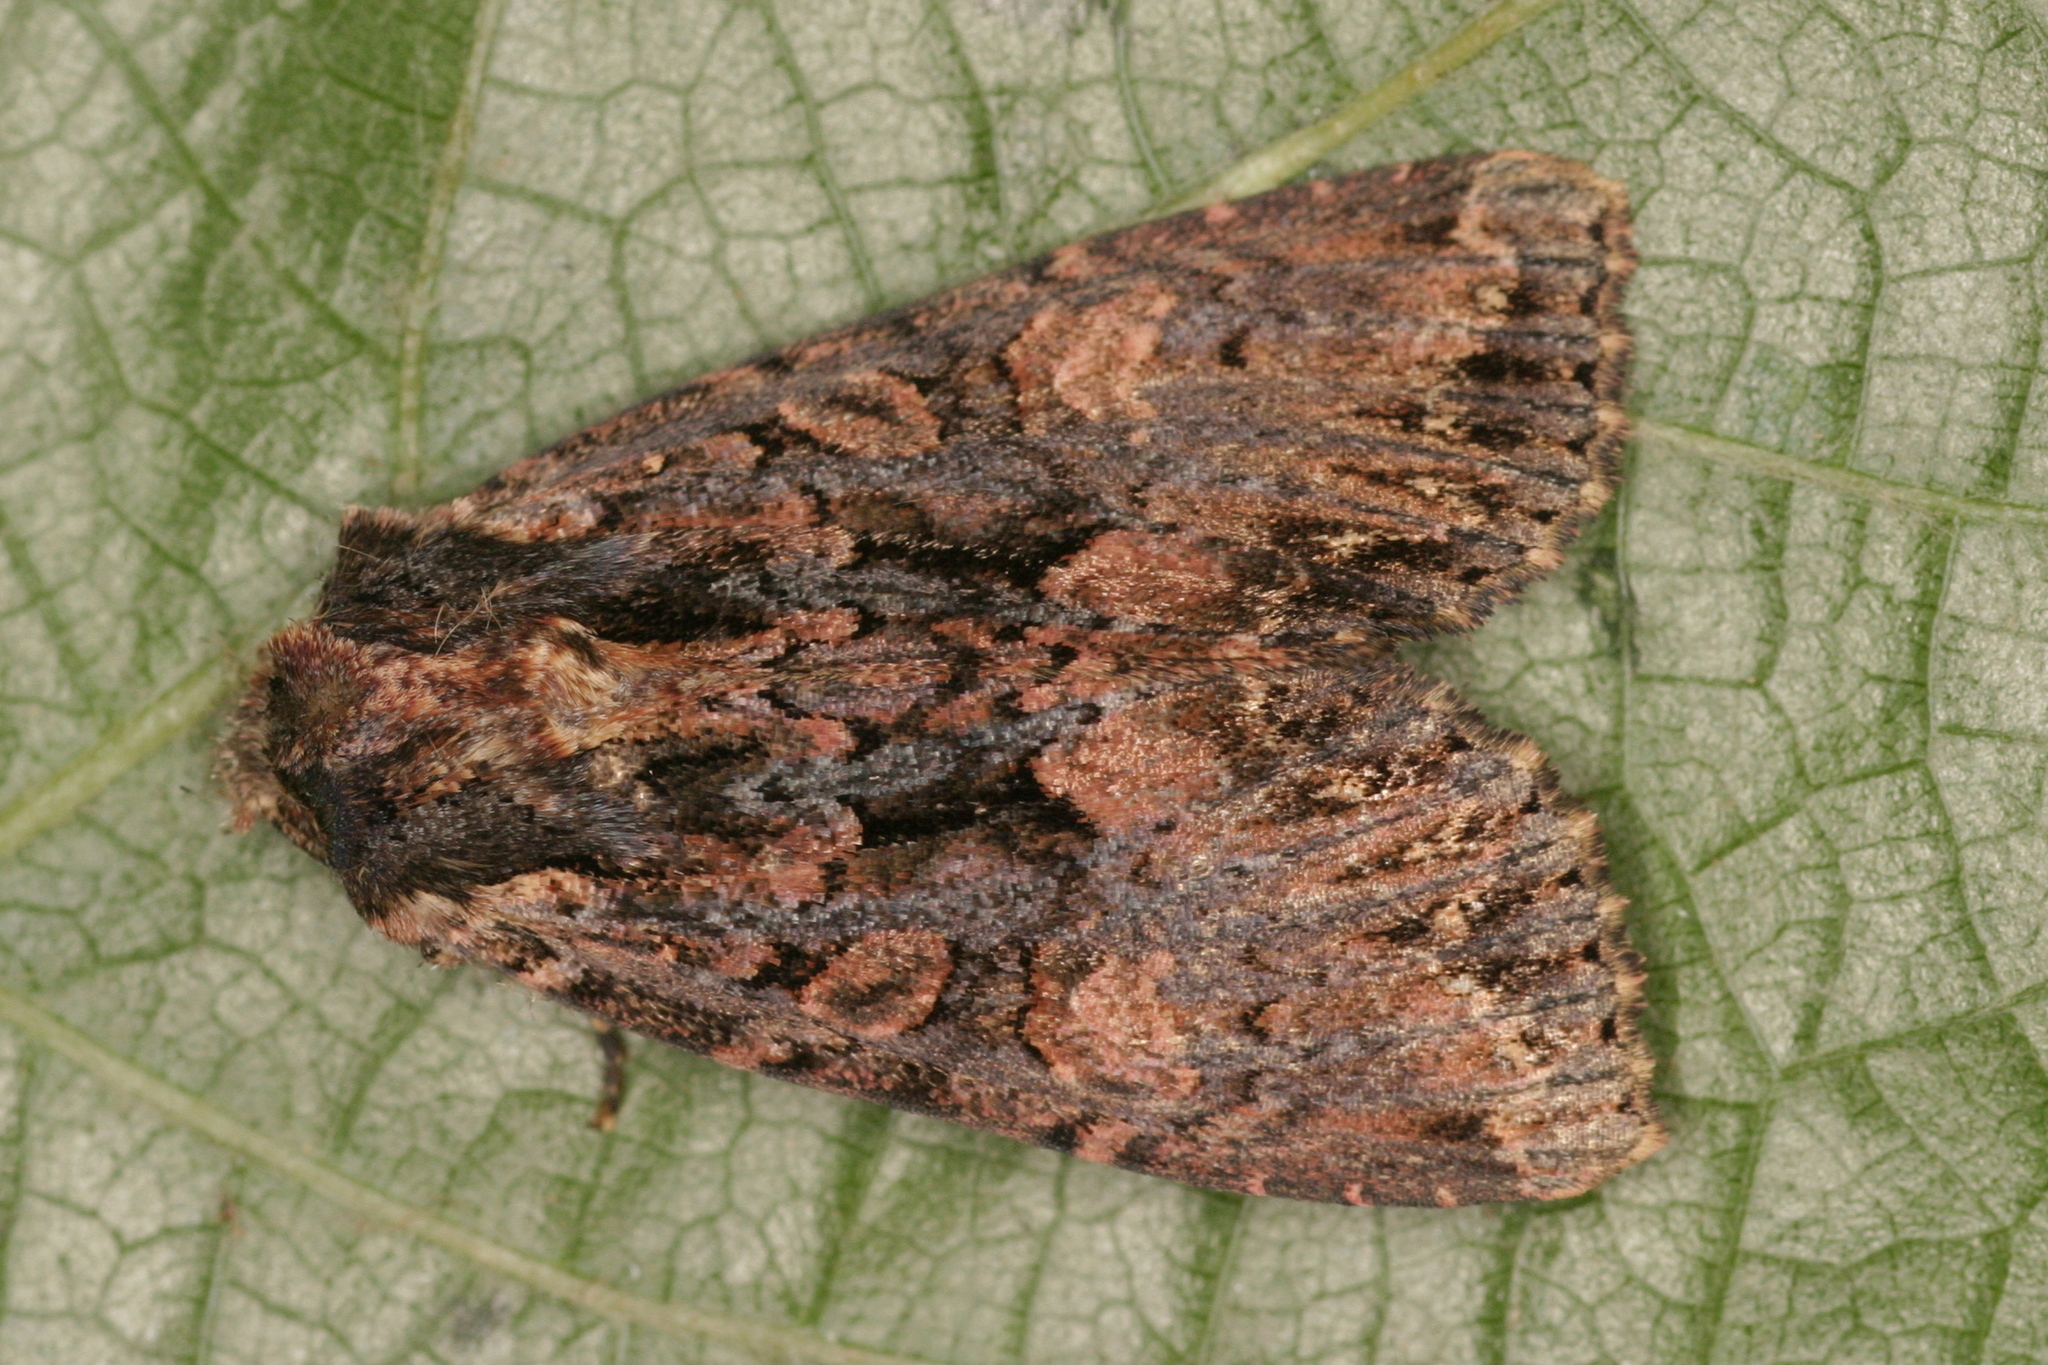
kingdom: Animalia
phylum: Arthropoda
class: Insecta
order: Lepidoptera
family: Noctuidae
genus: Mniotype
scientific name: Mniotype satura
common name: Beautiful arches
